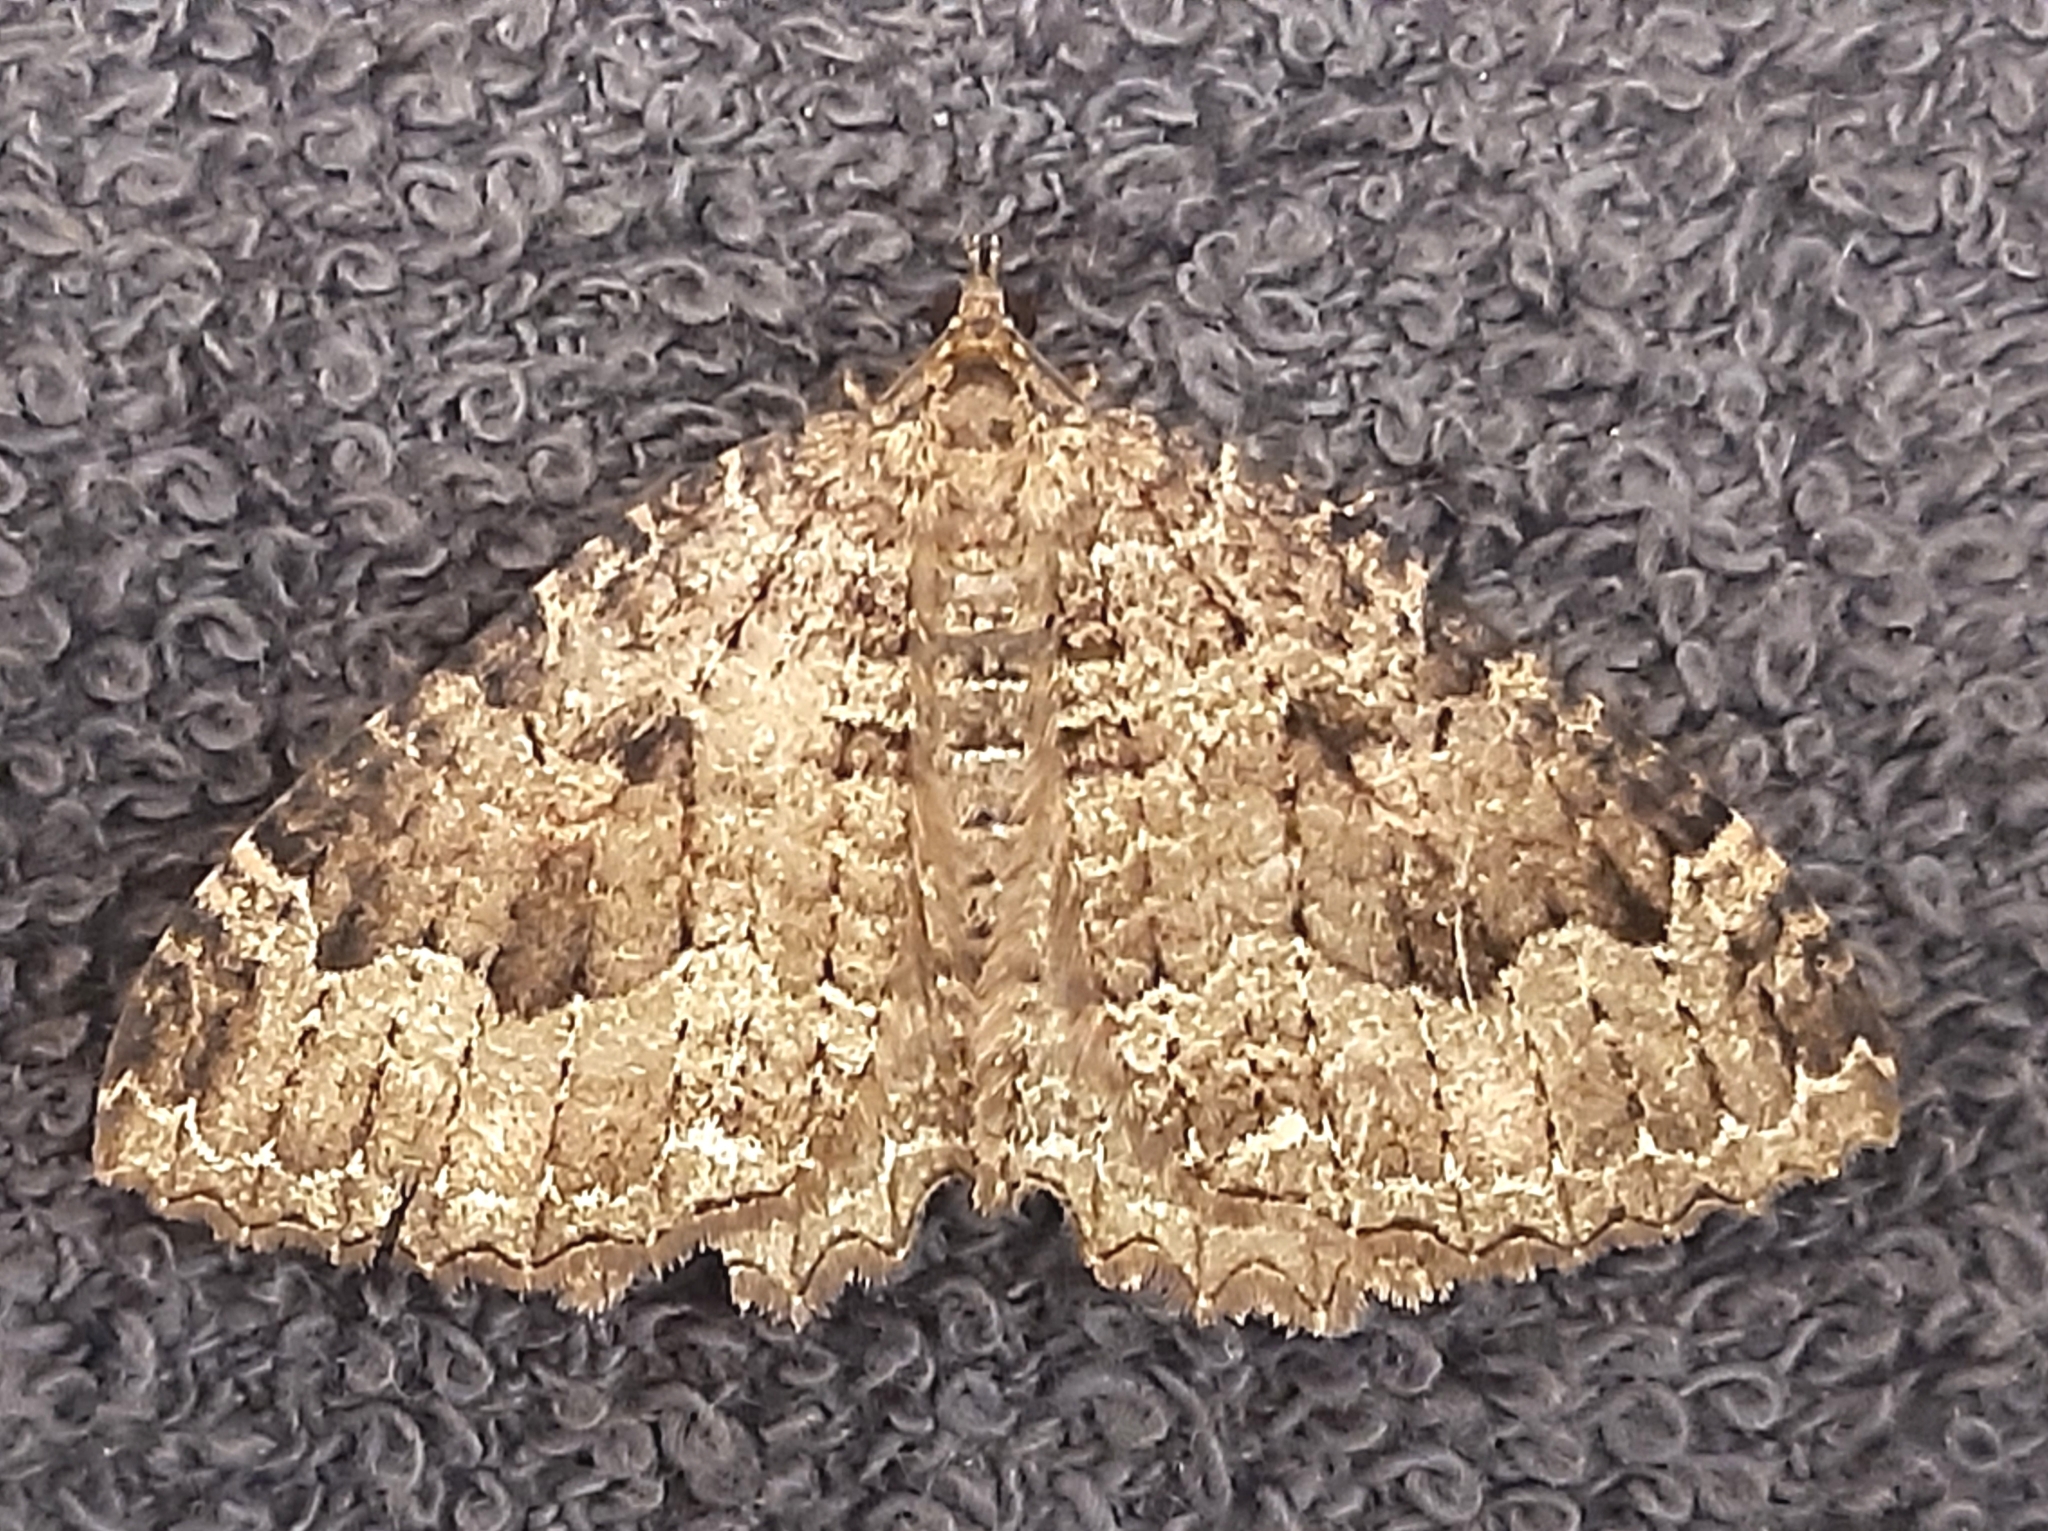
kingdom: Animalia
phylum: Arthropoda
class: Insecta
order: Lepidoptera
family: Geometridae
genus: Triphosa
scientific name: Triphosa dubitata
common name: Tissue
